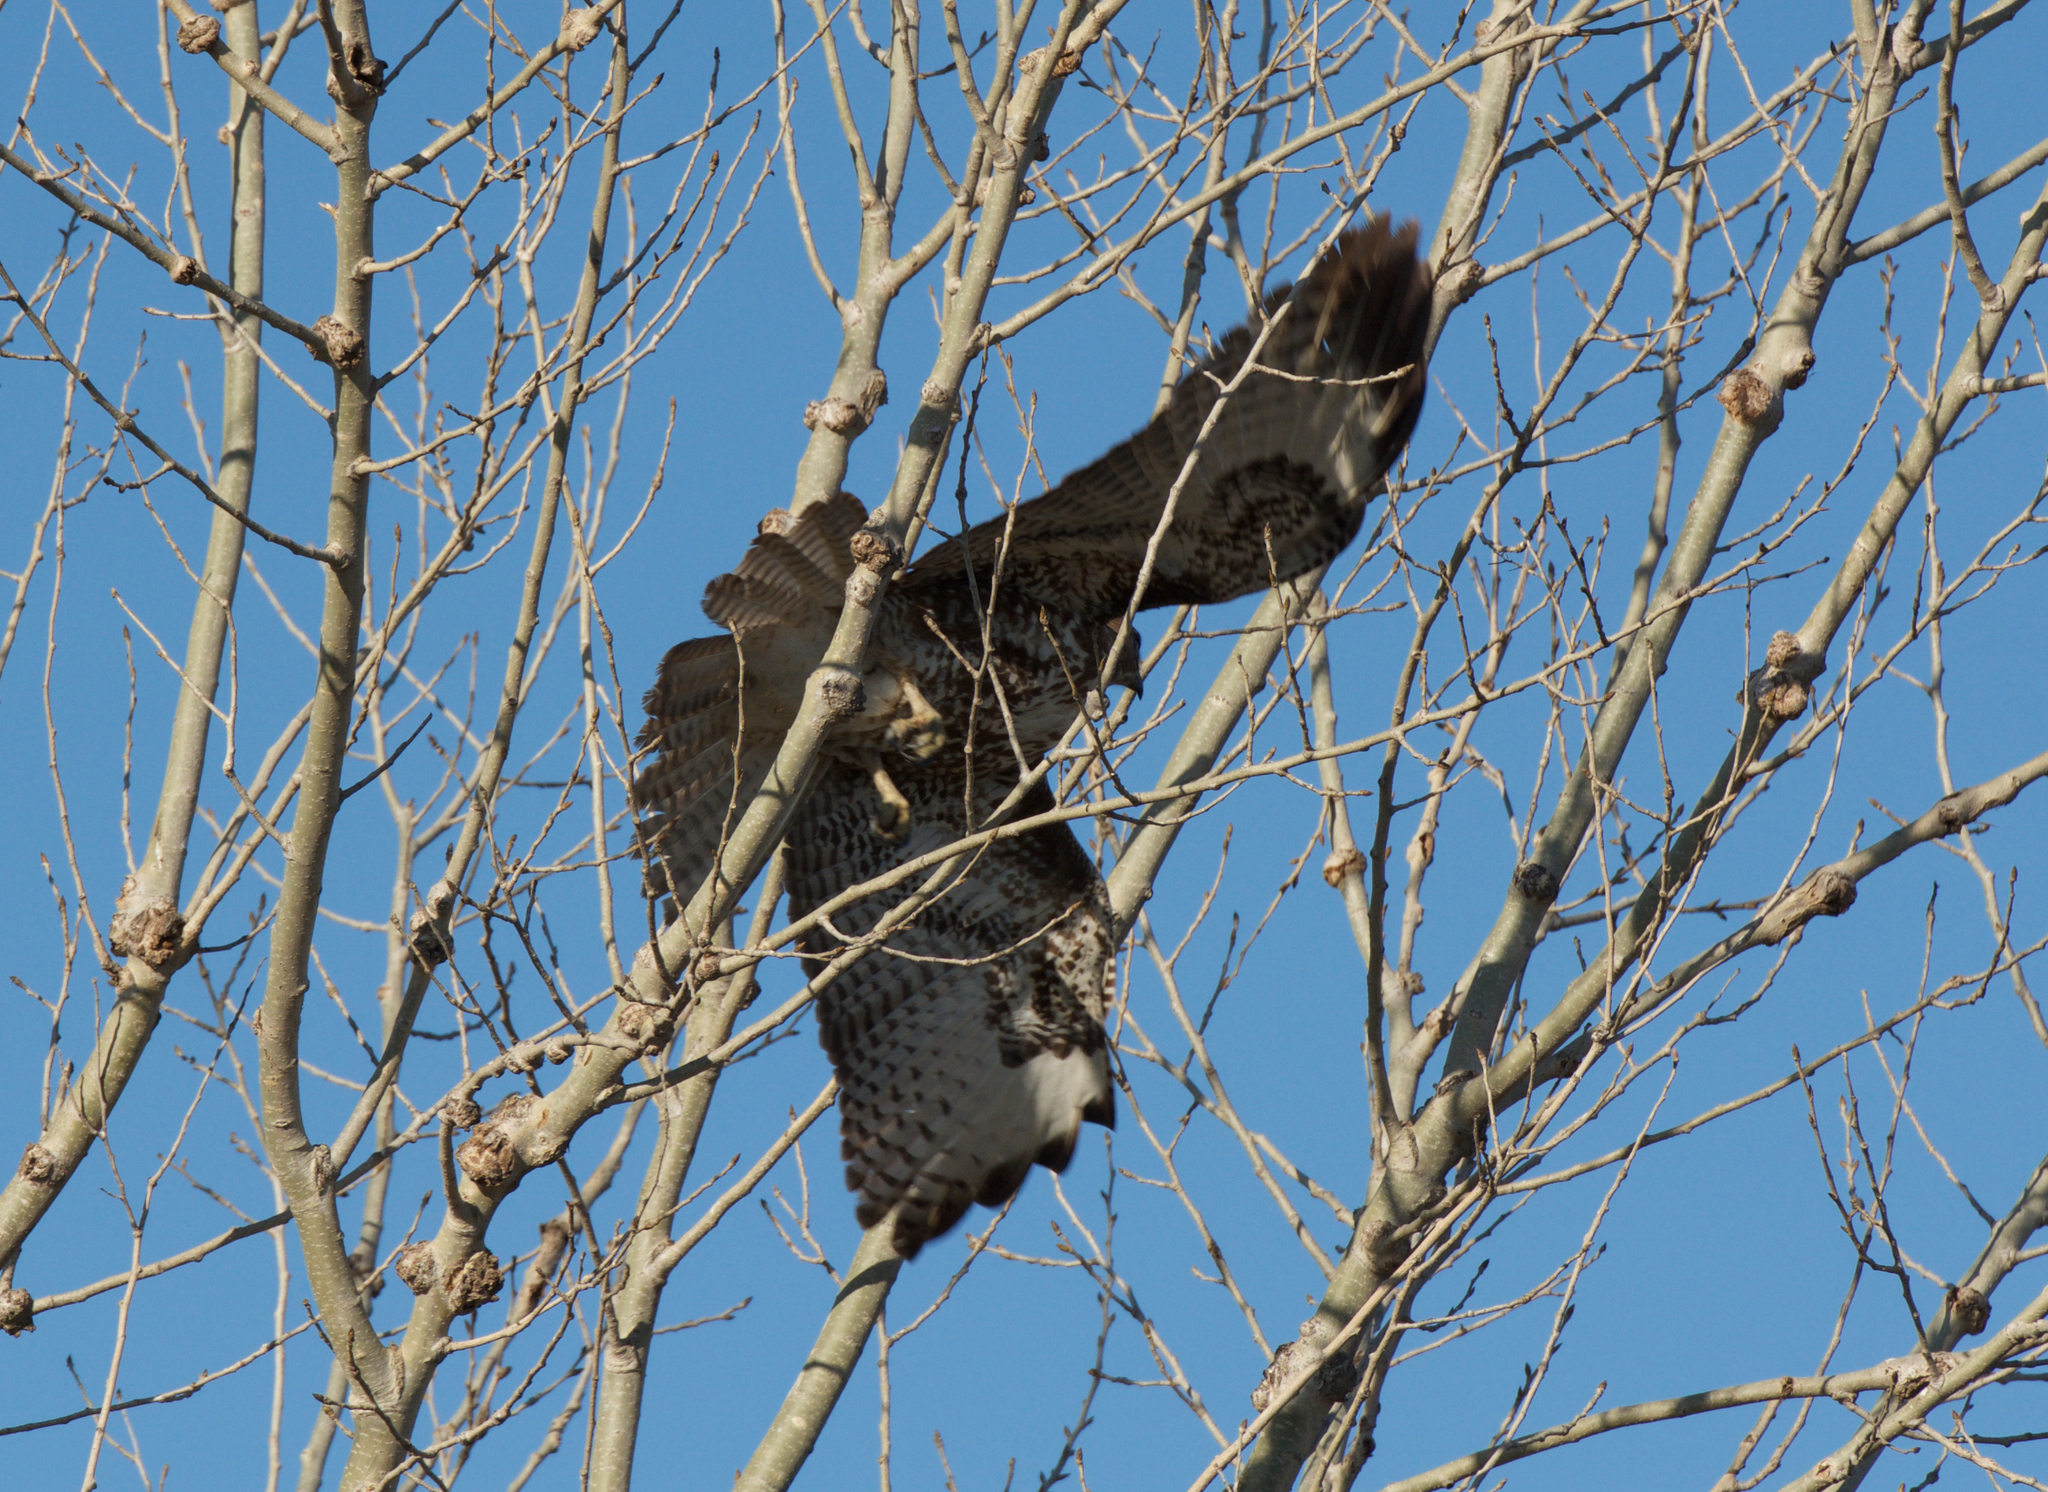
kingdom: Animalia
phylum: Chordata
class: Aves
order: Accipitriformes
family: Accipitridae
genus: Buteo
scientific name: Buteo jamaicensis
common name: Red-tailed hawk
